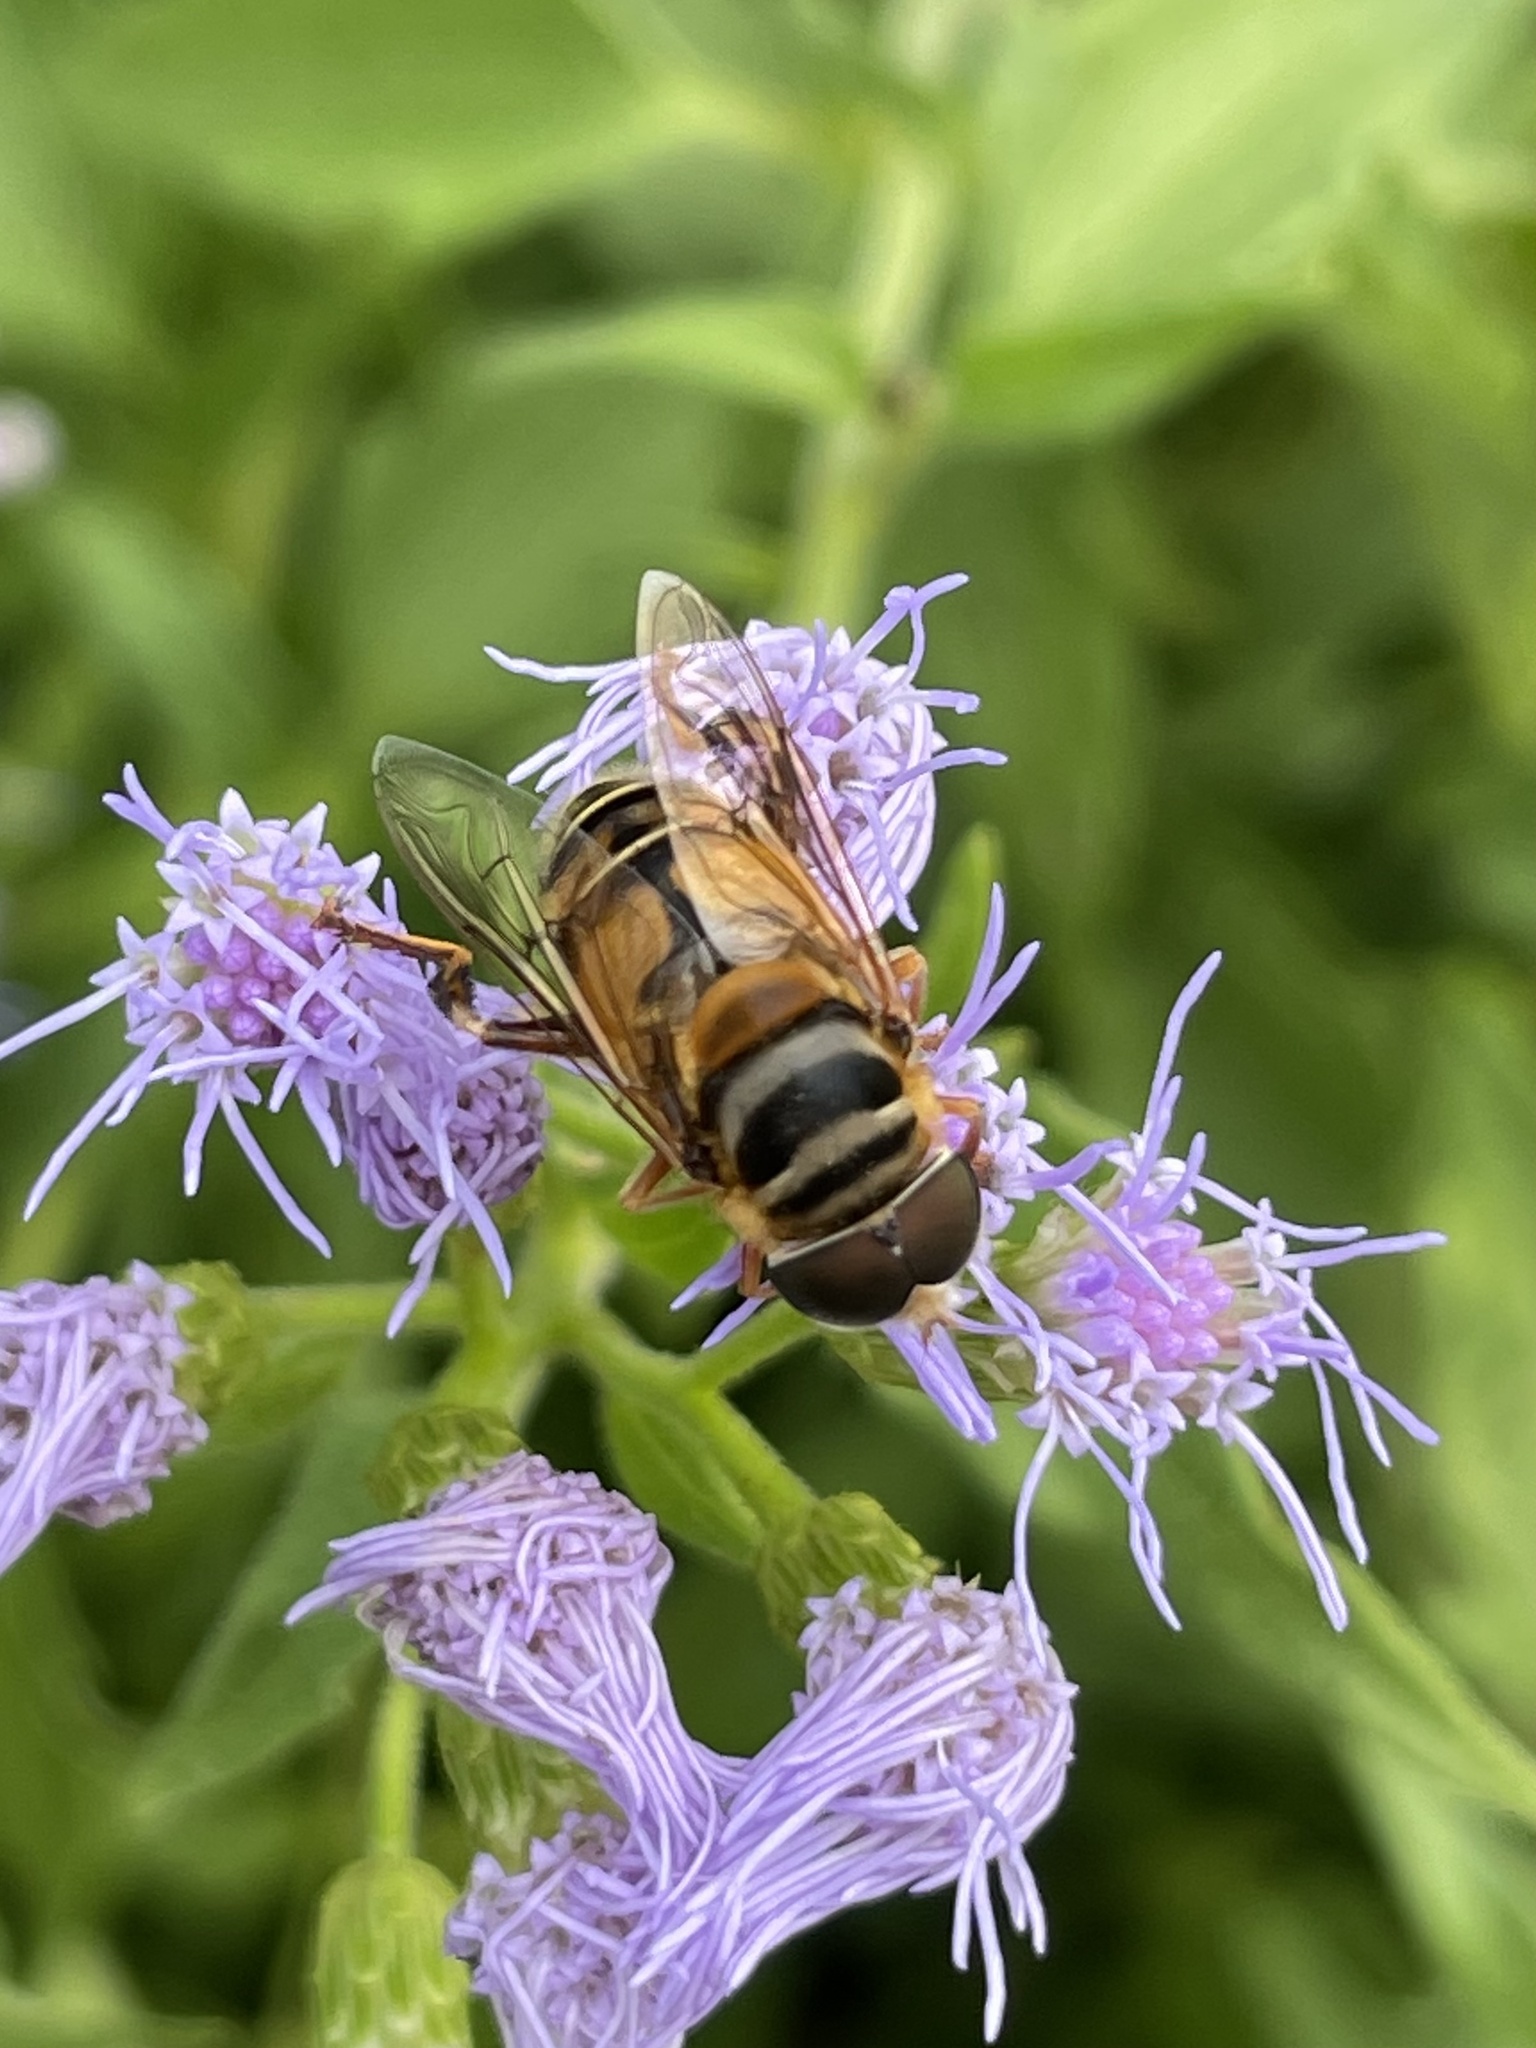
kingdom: Animalia
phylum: Arthropoda
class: Insecta
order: Diptera
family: Syrphidae
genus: Palpada
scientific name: Palpada vinetorum
